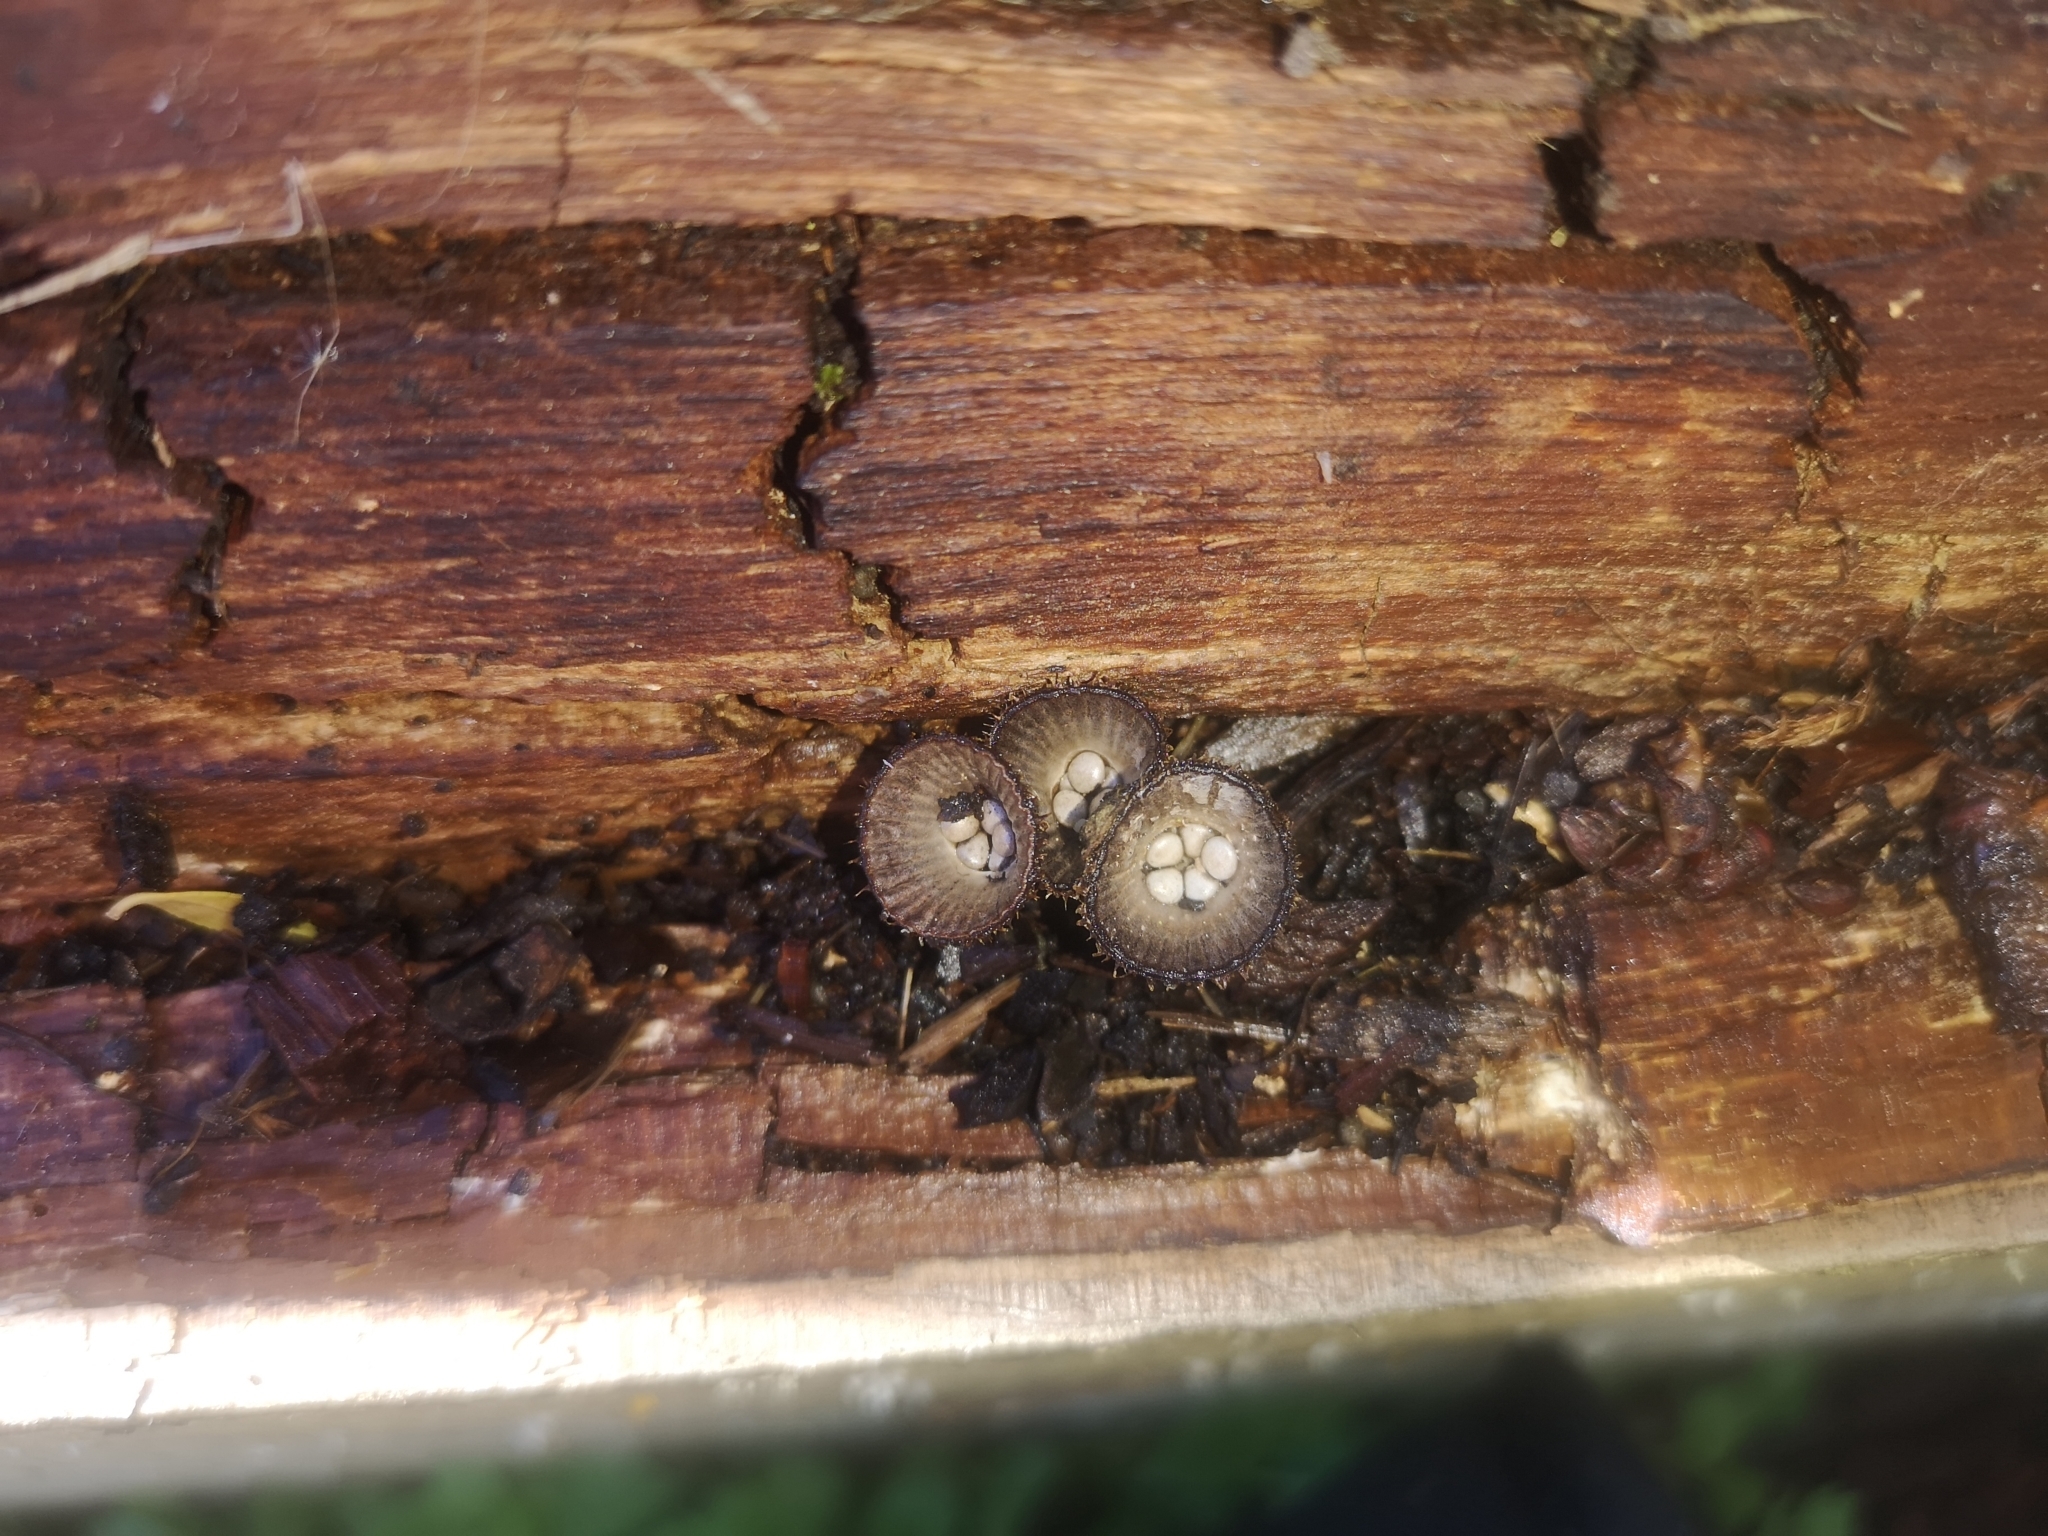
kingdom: Fungi
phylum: Basidiomycota
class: Agaricomycetes
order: Agaricales
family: Agaricaceae
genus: Cyathus
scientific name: Cyathus striatus
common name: Fluted bird's nest
